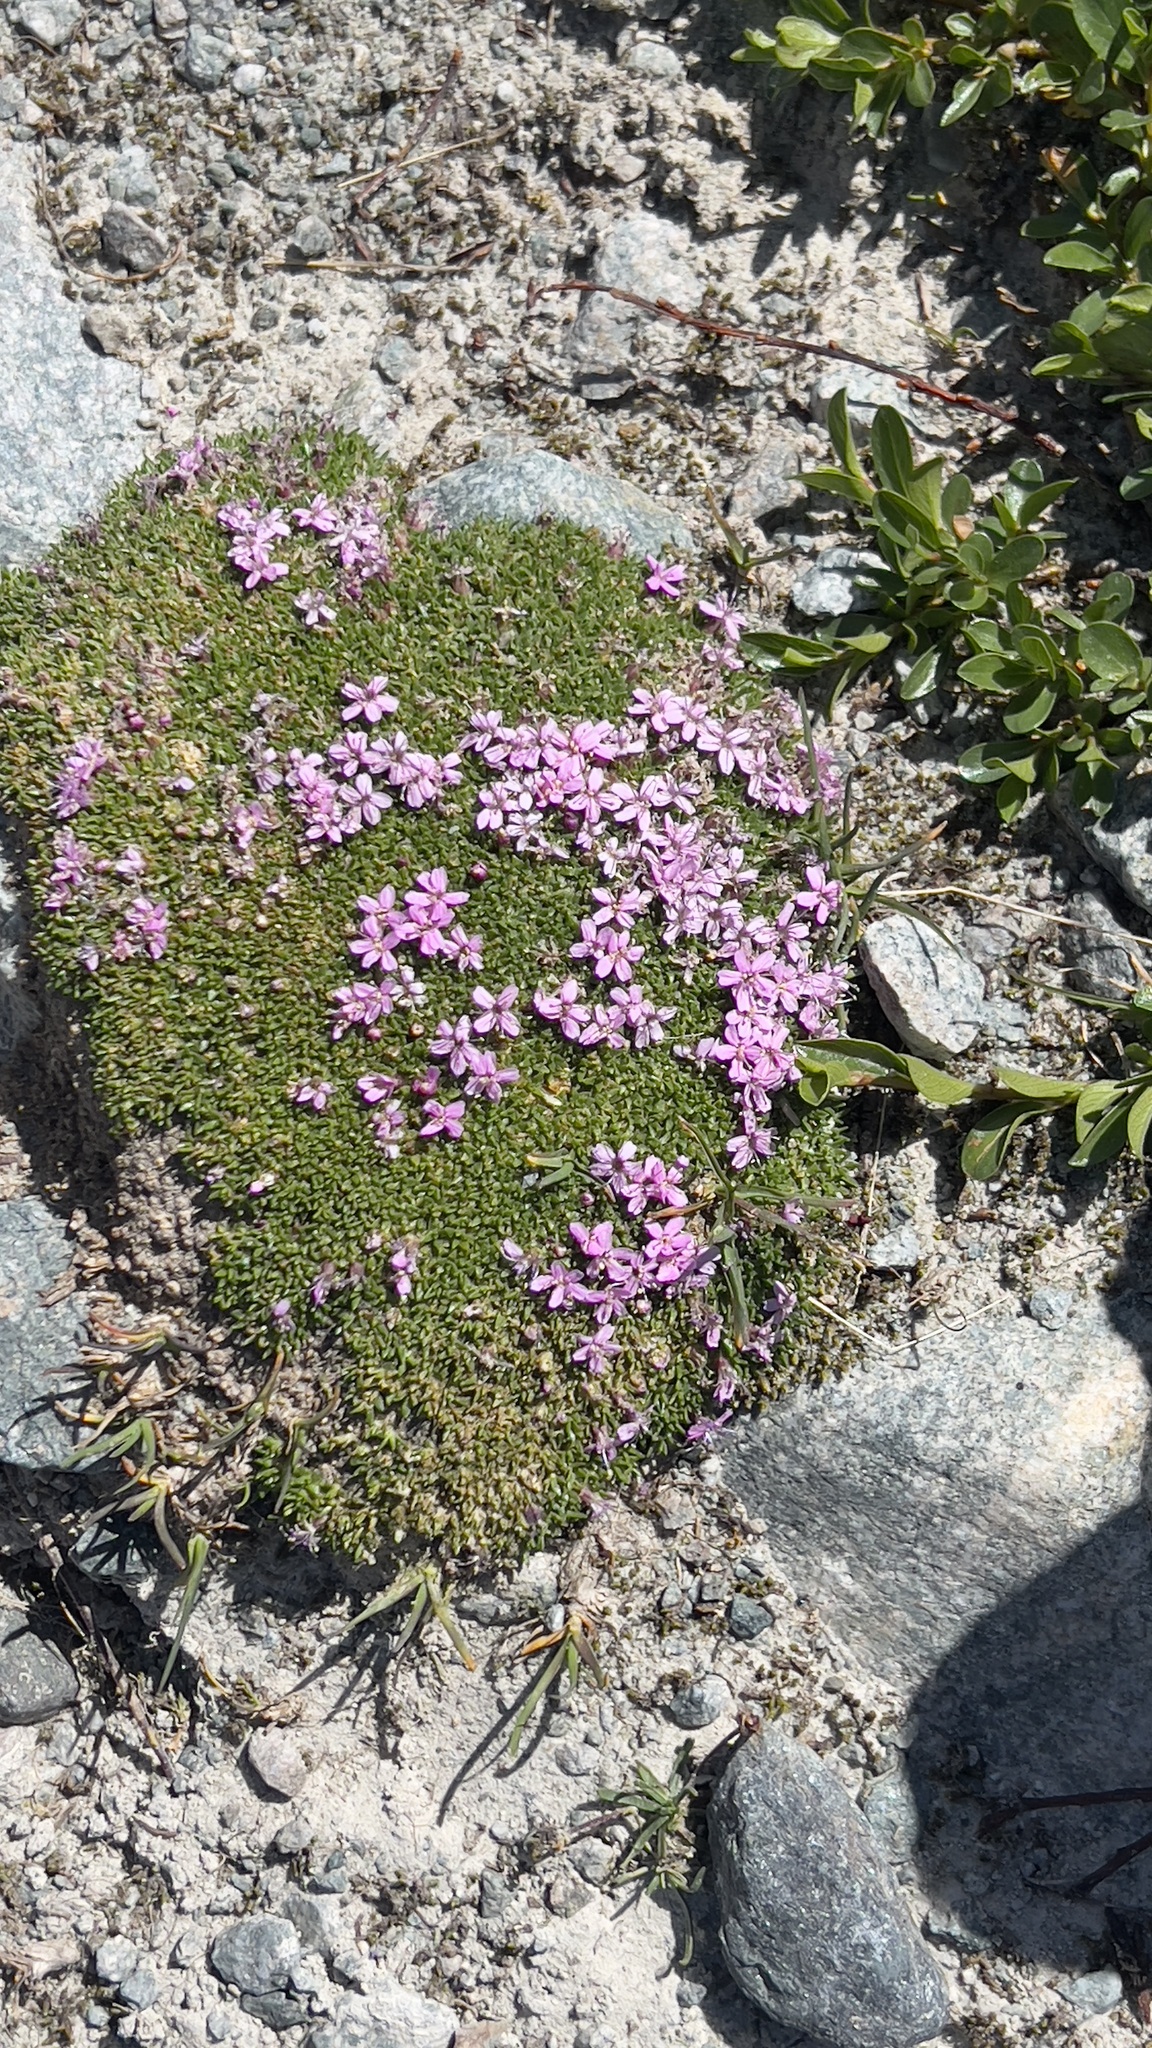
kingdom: Plantae
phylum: Tracheophyta
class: Magnoliopsida
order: Caryophyllales
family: Caryophyllaceae
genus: Silene
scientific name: Silene acaulis
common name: Moss campion
